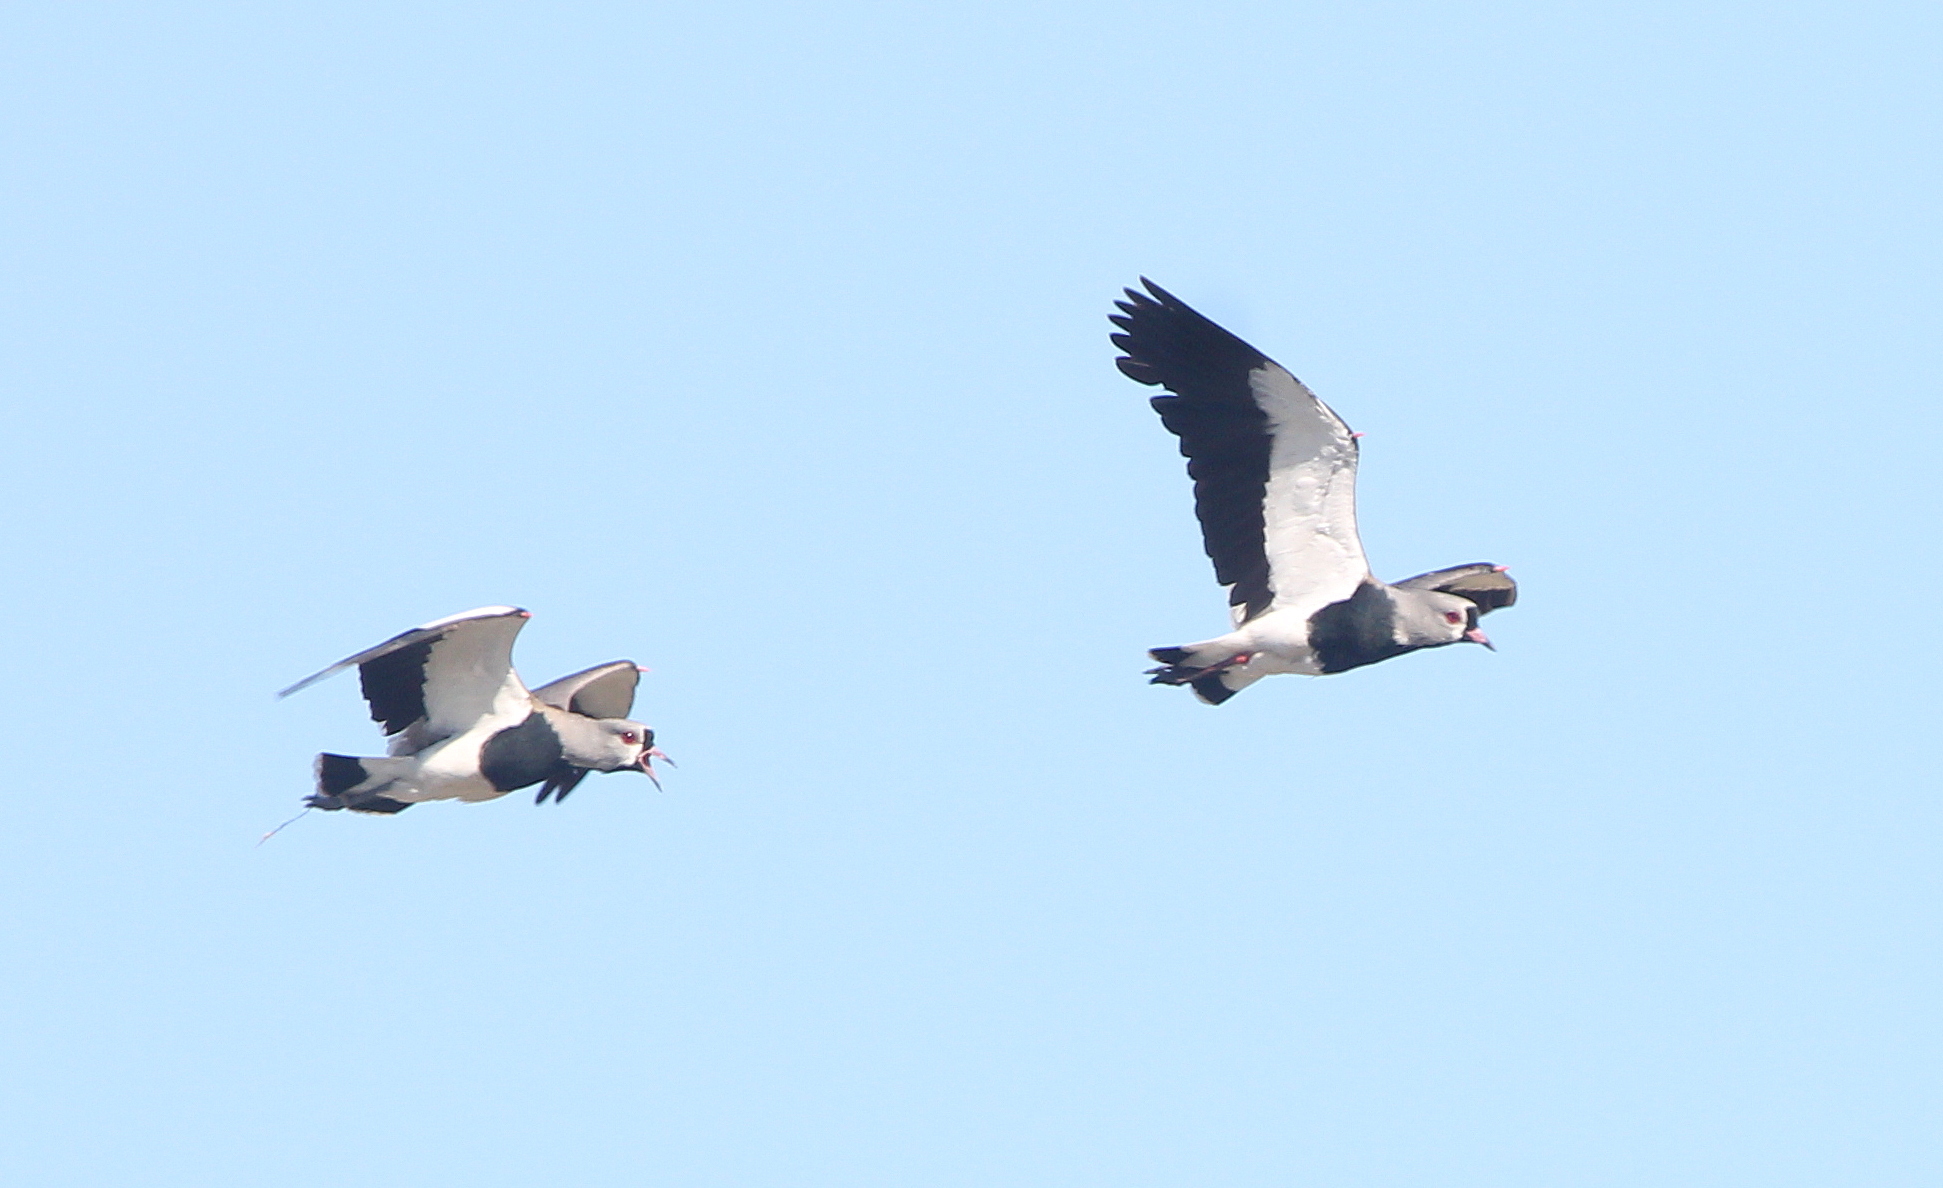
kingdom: Animalia
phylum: Chordata
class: Aves
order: Charadriiformes
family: Charadriidae
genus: Vanellus
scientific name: Vanellus chilensis
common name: Southern lapwing
